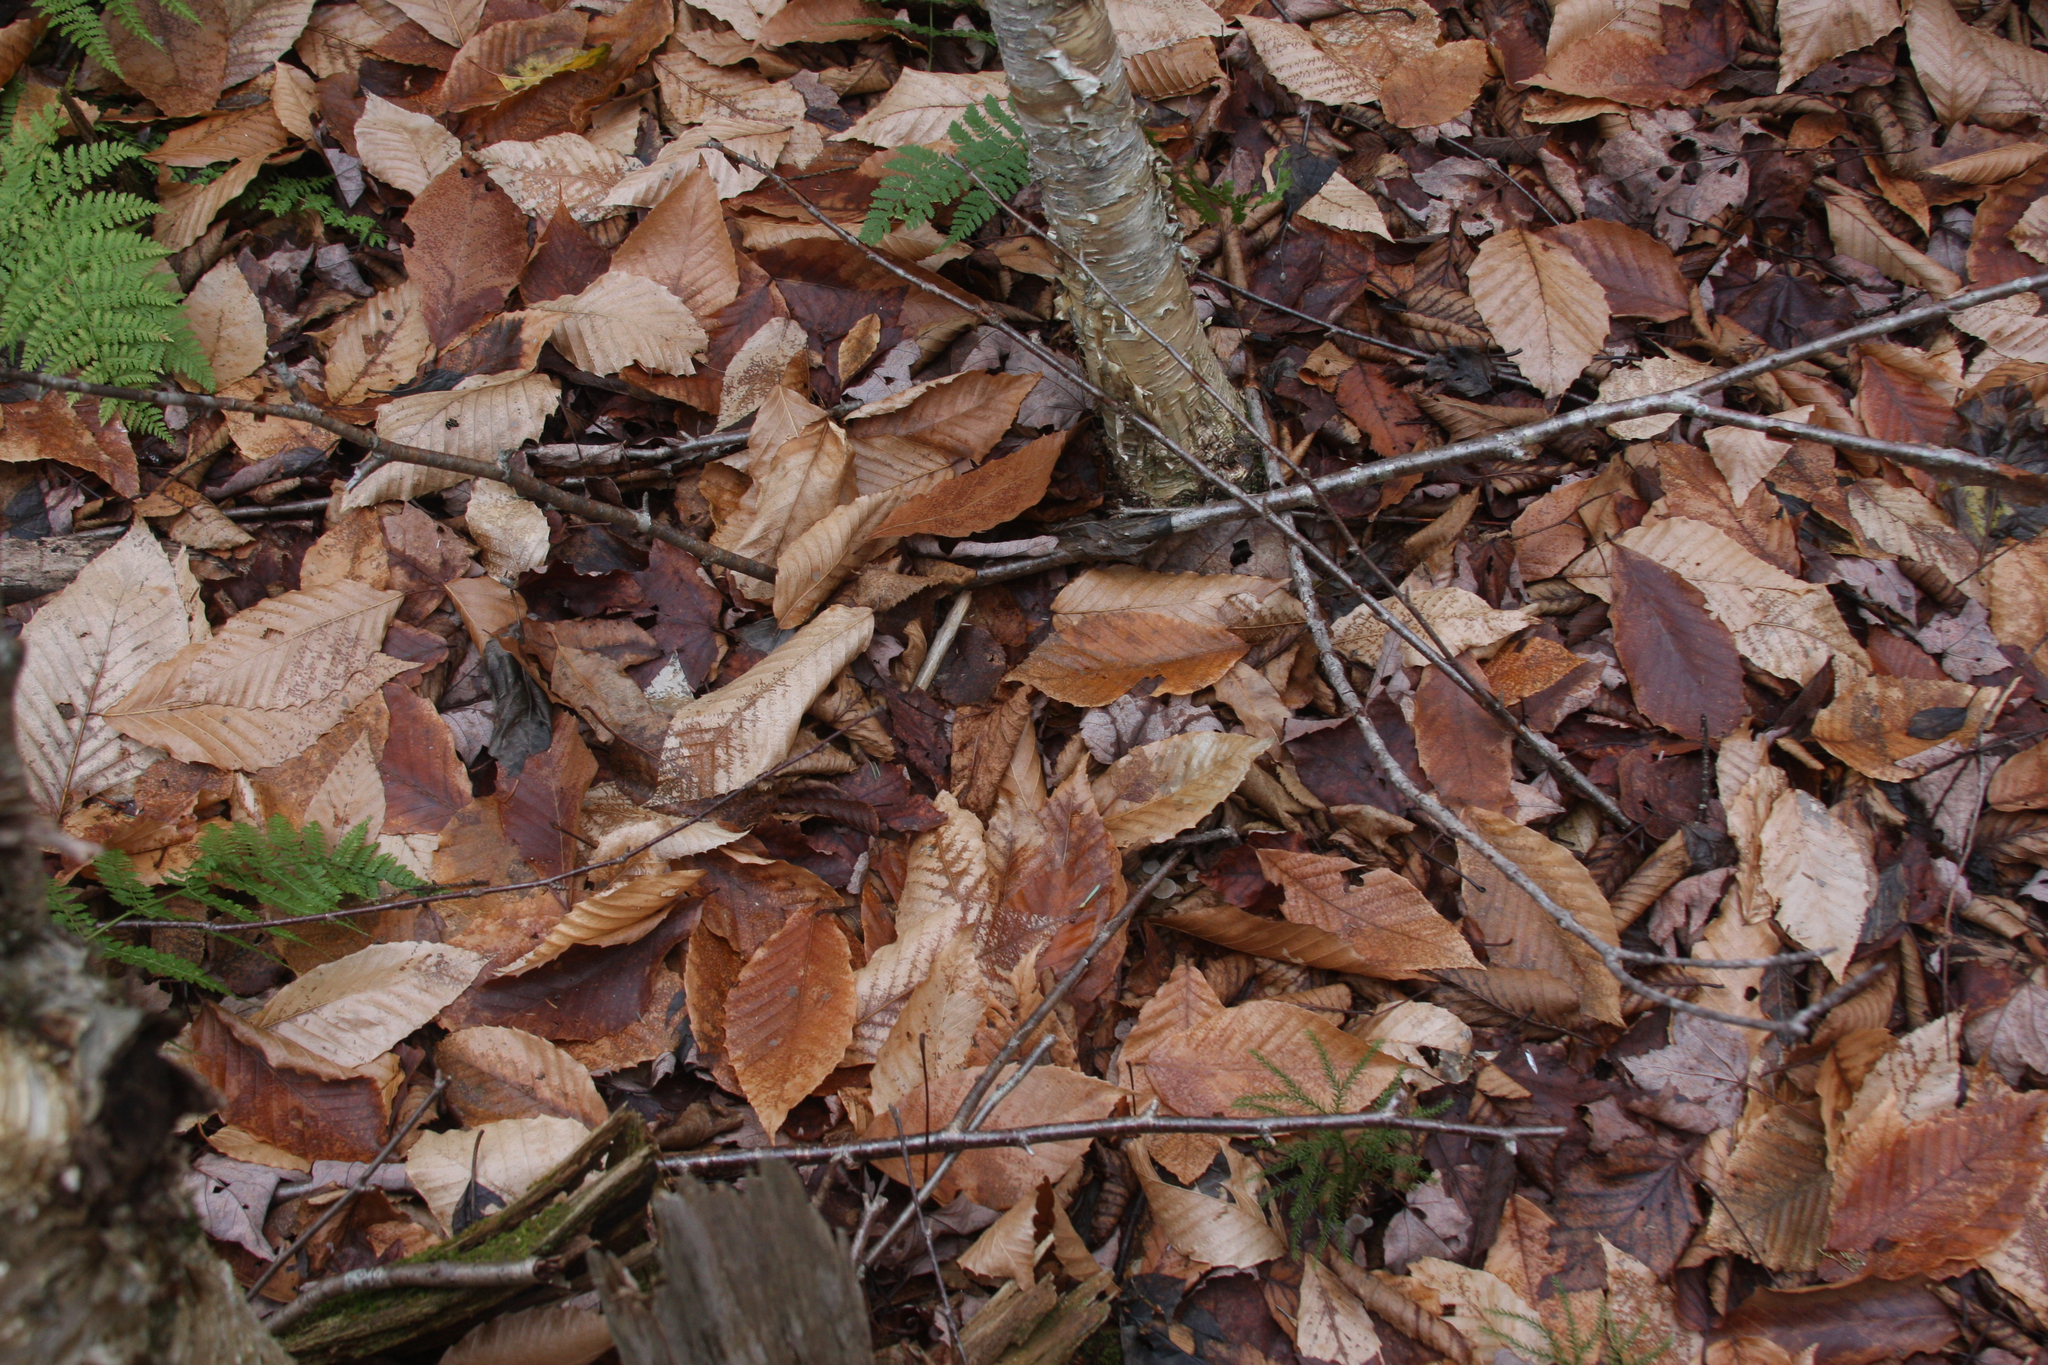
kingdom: Plantae
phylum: Tracheophyta
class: Magnoliopsida
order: Fagales
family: Fagaceae
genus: Fagus
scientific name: Fagus grandifolia
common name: American beech
